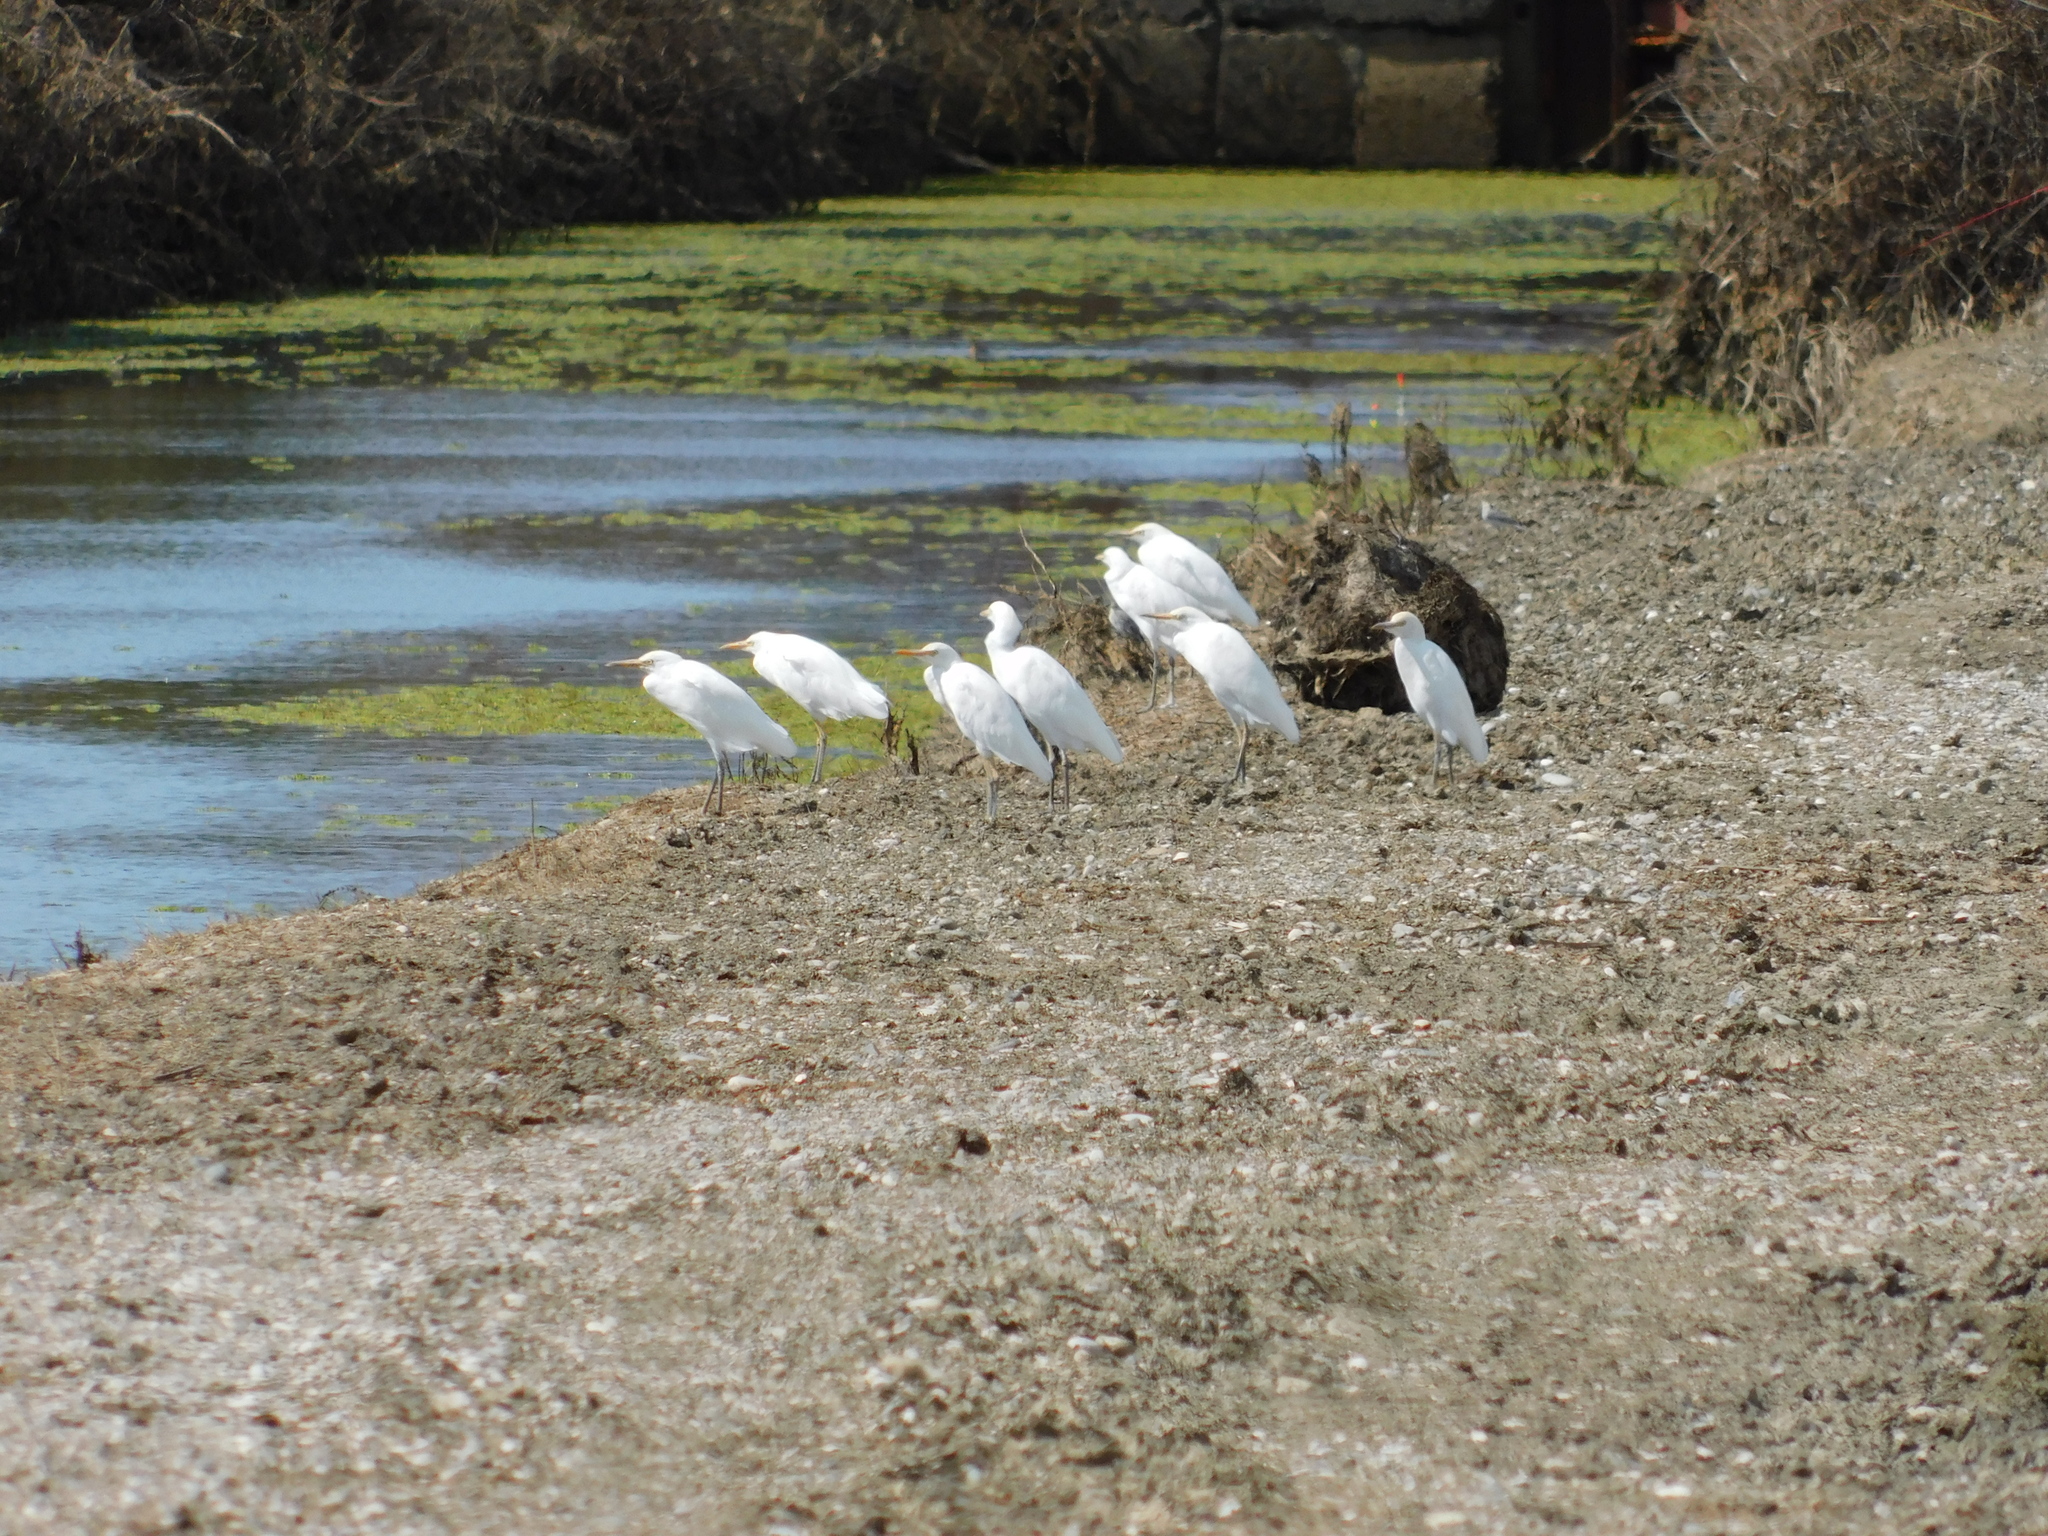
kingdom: Animalia
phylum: Chordata
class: Aves
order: Pelecaniformes
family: Ardeidae
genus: Bubulcus
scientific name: Bubulcus ibis
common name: Cattle egret
